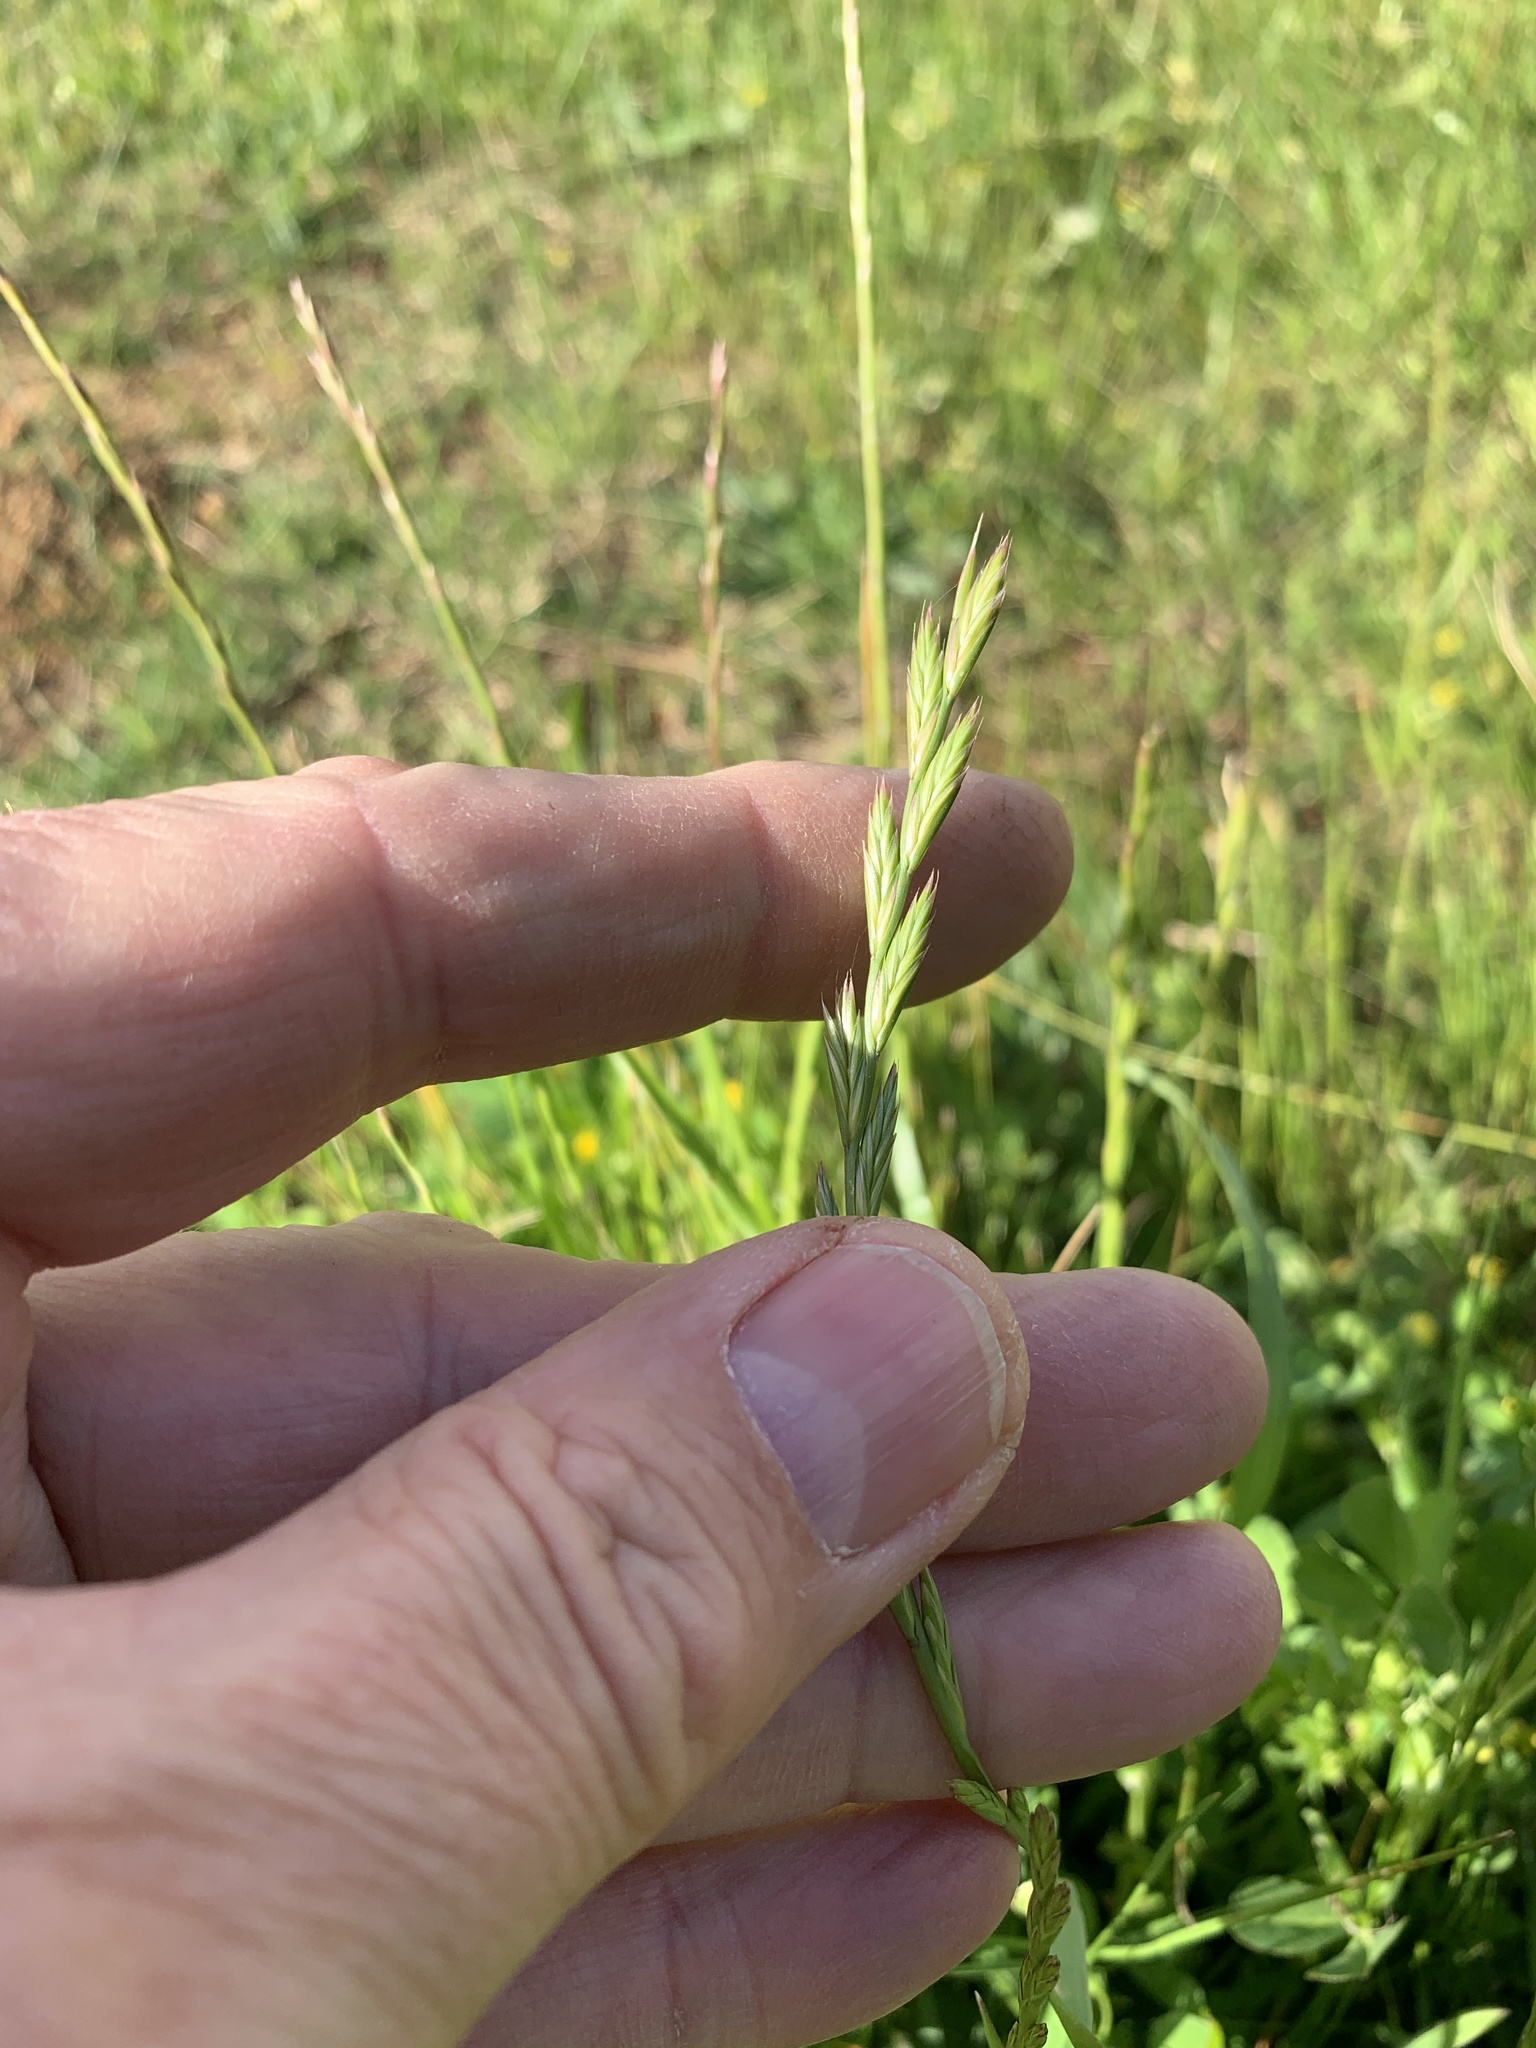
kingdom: Plantae
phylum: Tracheophyta
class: Liliopsida
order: Poales
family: Poaceae
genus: Lolium
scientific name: Lolium perenne
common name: Perennial ryegrass
